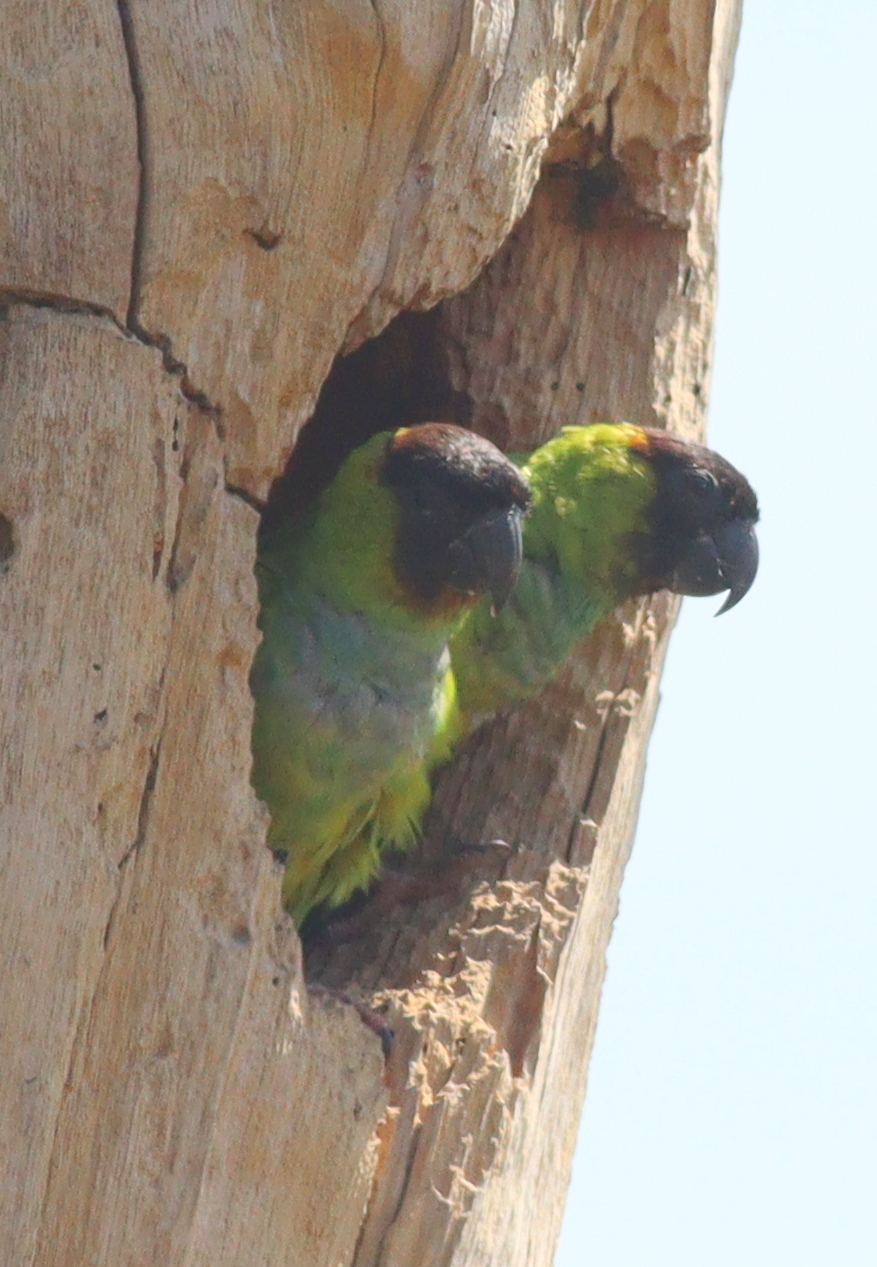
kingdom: Animalia
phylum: Chordata
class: Aves
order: Psittaciformes
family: Psittacidae
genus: Nandayus
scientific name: Nandayus nenday
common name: Nanday parakeet
